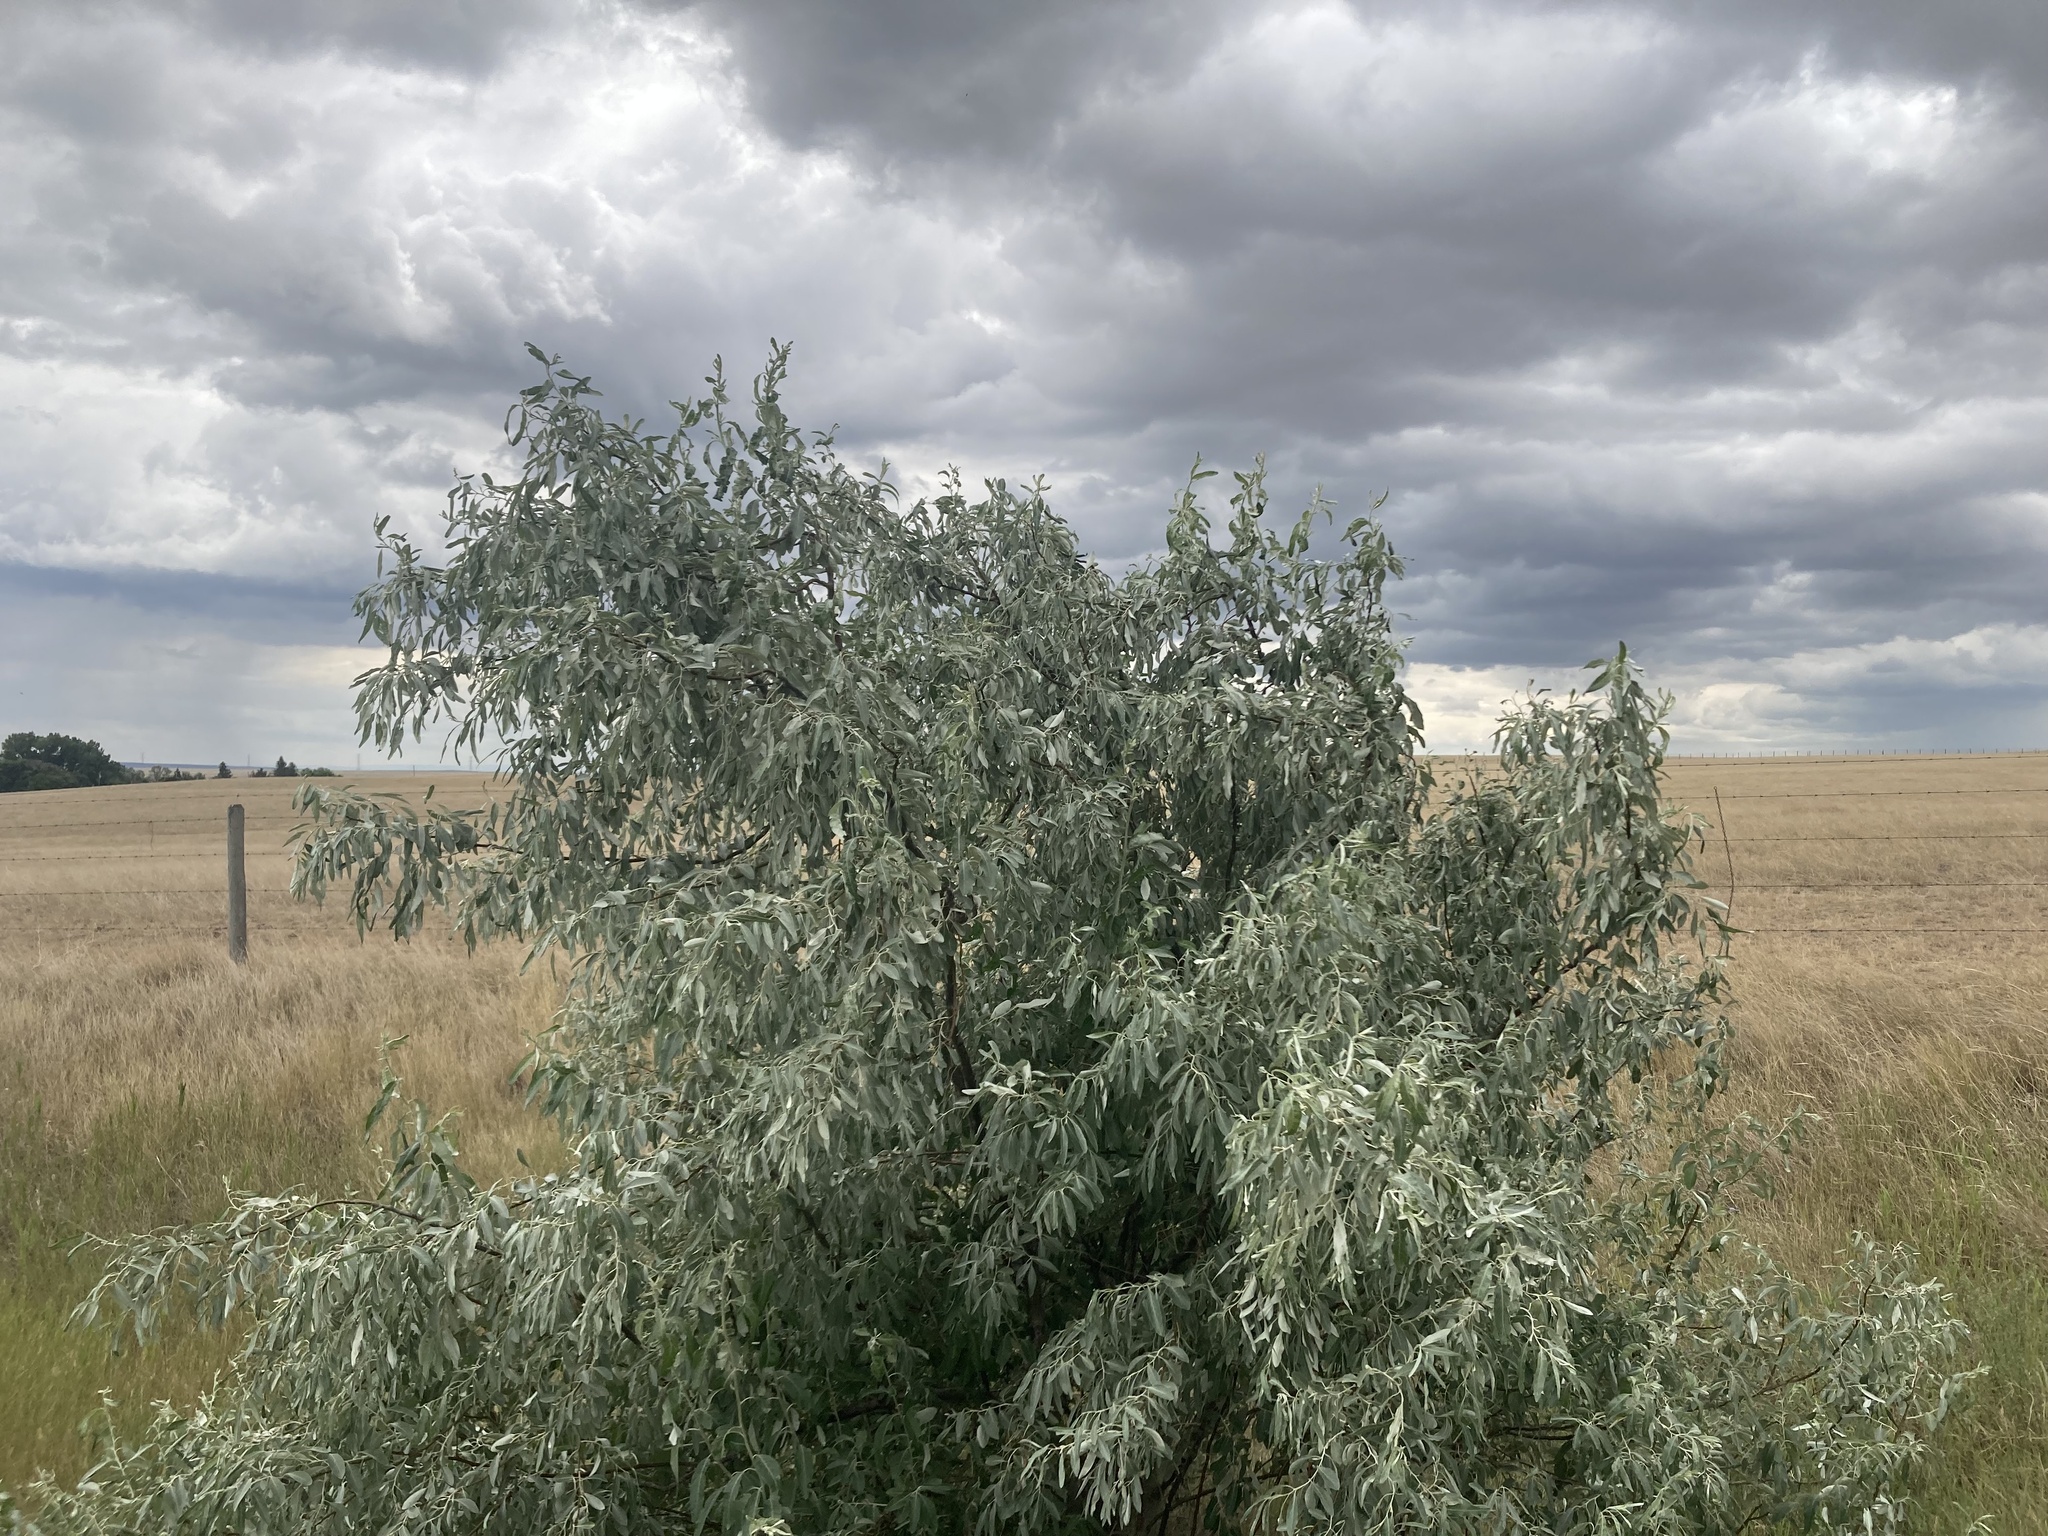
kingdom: Plantae
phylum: Tracheophyta
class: Magnoliopsida
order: Rosales
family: Elaeagnaceae
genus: Elaeagnus
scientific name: Elaeagnus angustifolia
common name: Russian olive
